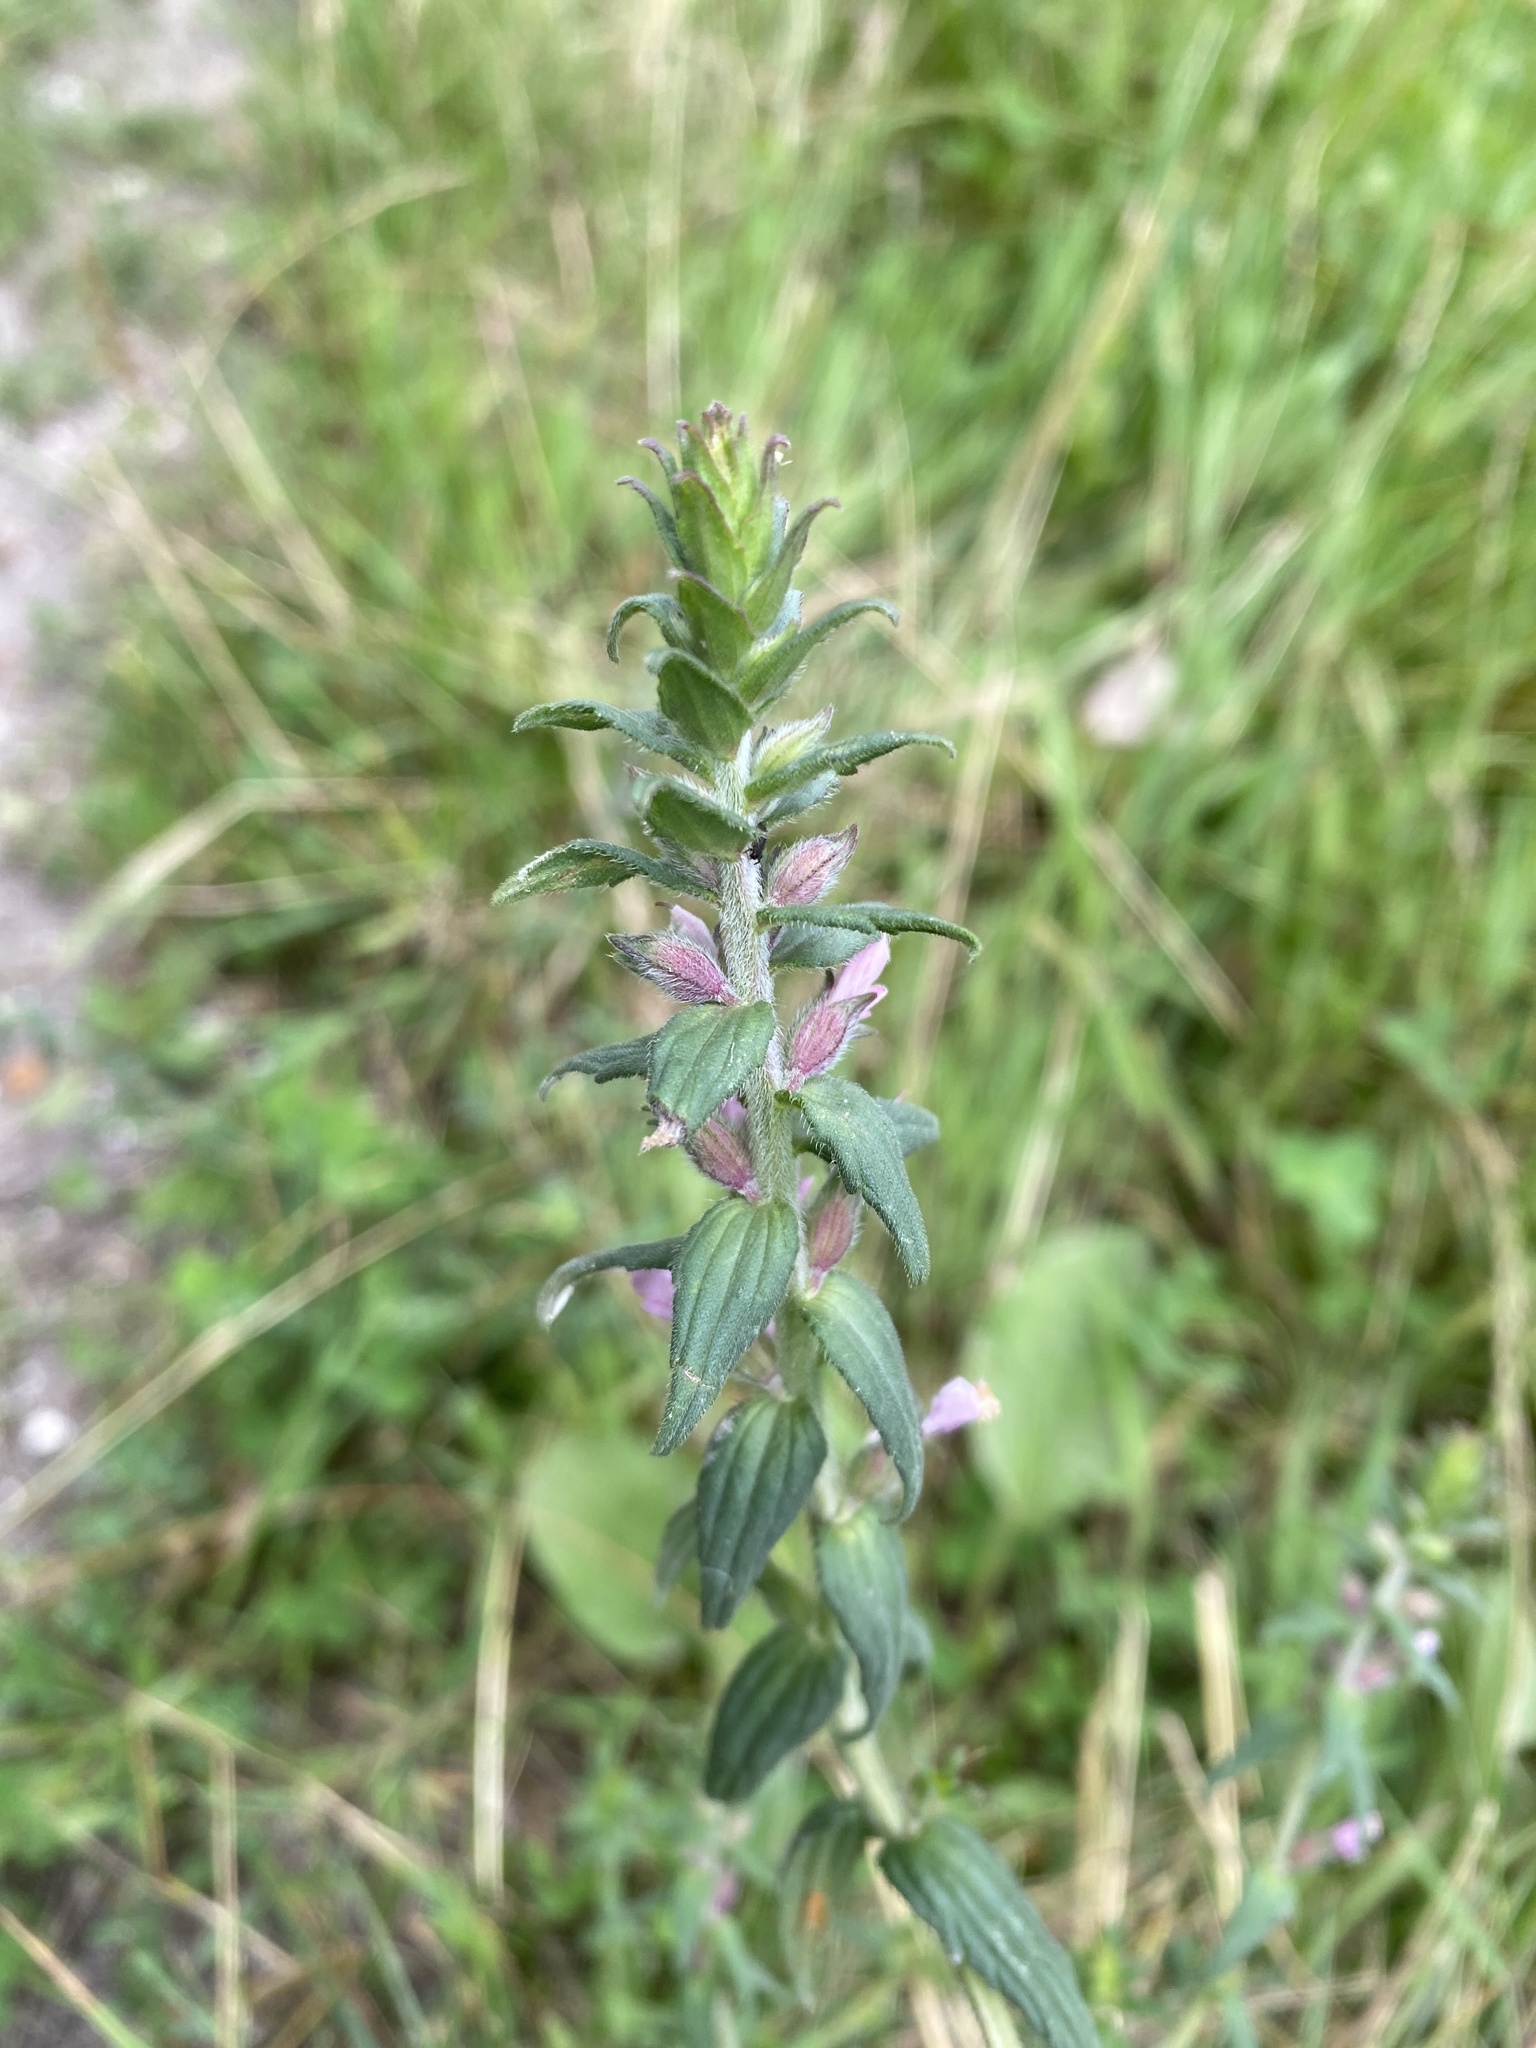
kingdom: Plantae
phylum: Tracheophyta
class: Magnoliopsida
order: Lamiales
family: Orobanchaceae
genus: Odontites
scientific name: Odontites vernus
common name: Red bartsia
